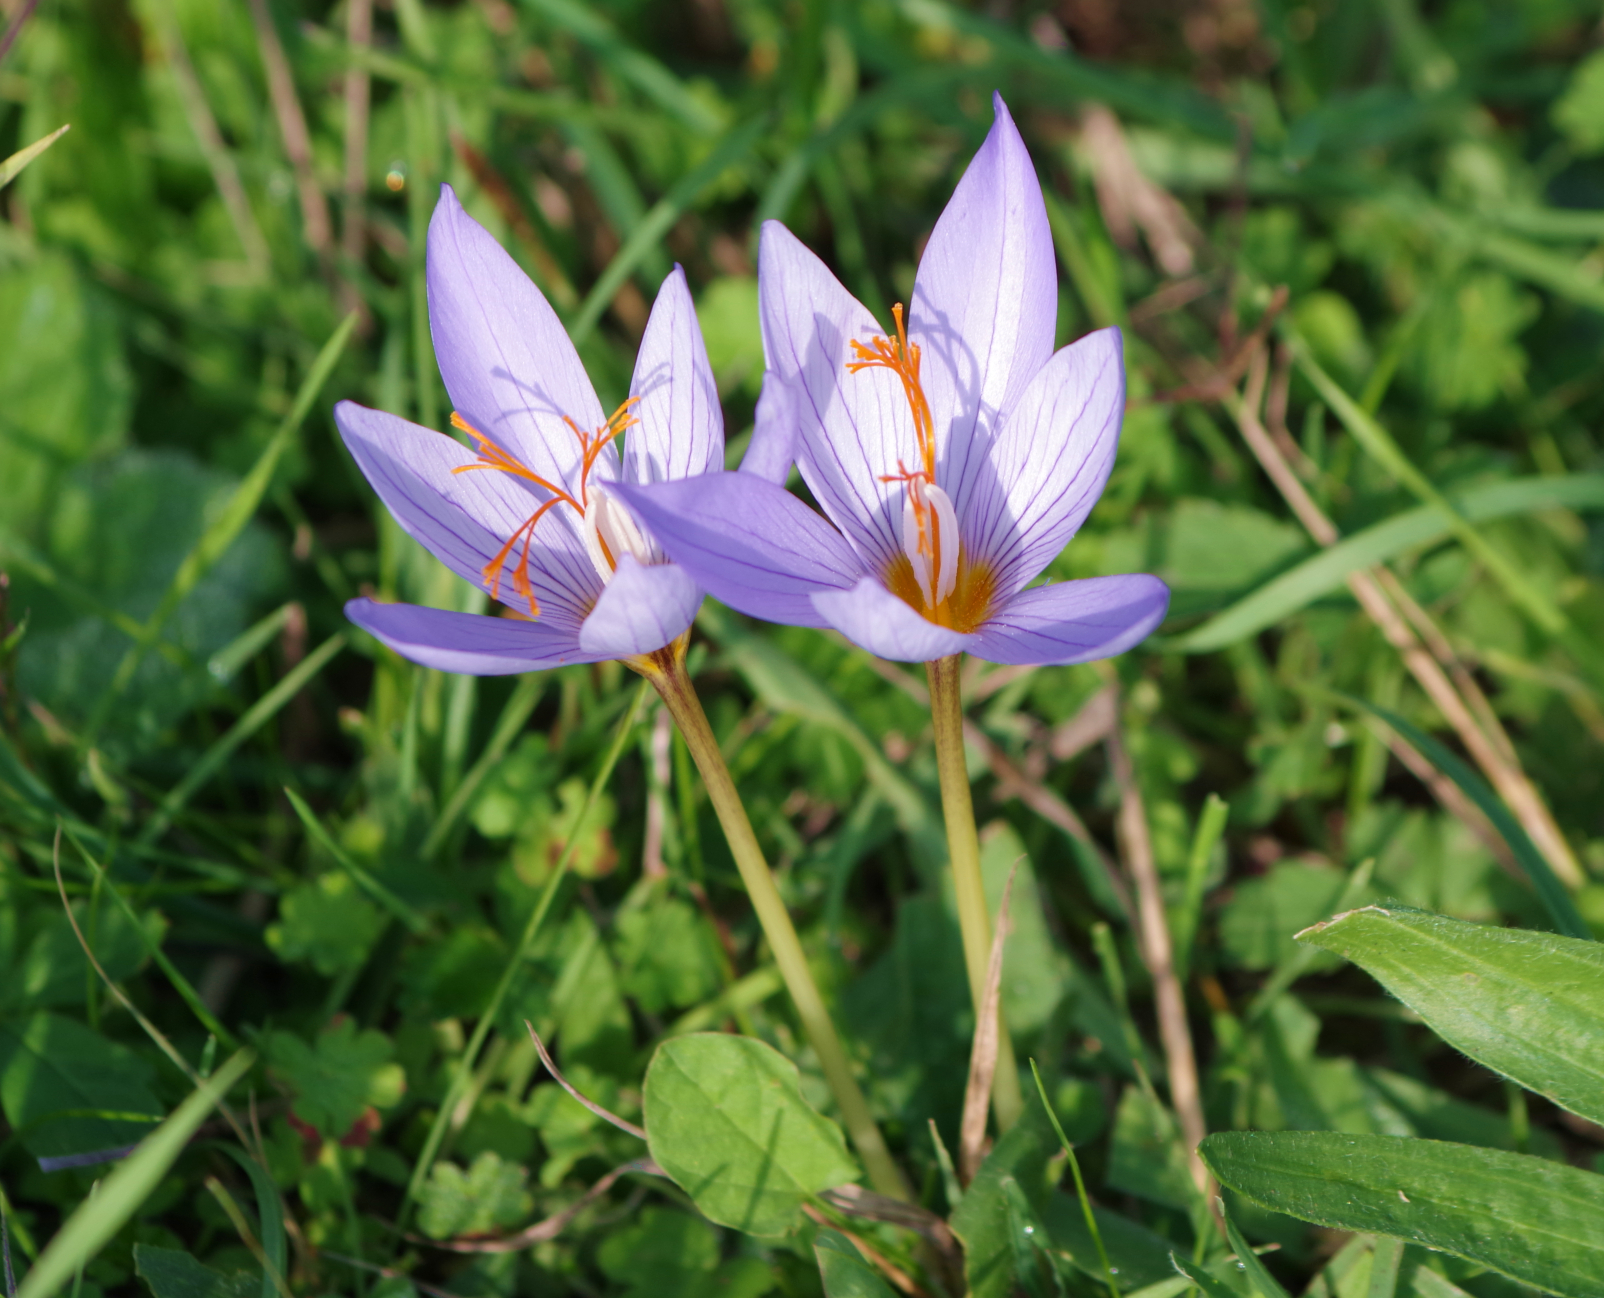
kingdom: Plantae
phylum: Tracheophyta
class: Liliopsida
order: Asparagales
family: Iridaceae
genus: Crocus
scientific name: Crocus ibrahimii
